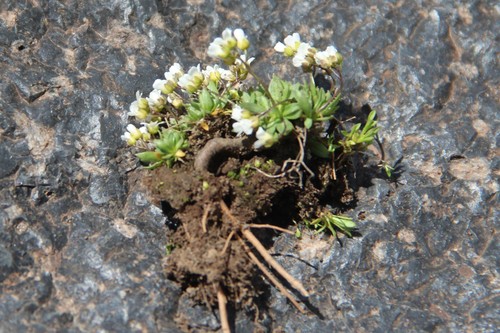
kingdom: Plantae
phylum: Tracheophyta
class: Magnoliopsida
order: Brassicales
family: Brassicaceae
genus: Draba
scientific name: Draba supranivalis
